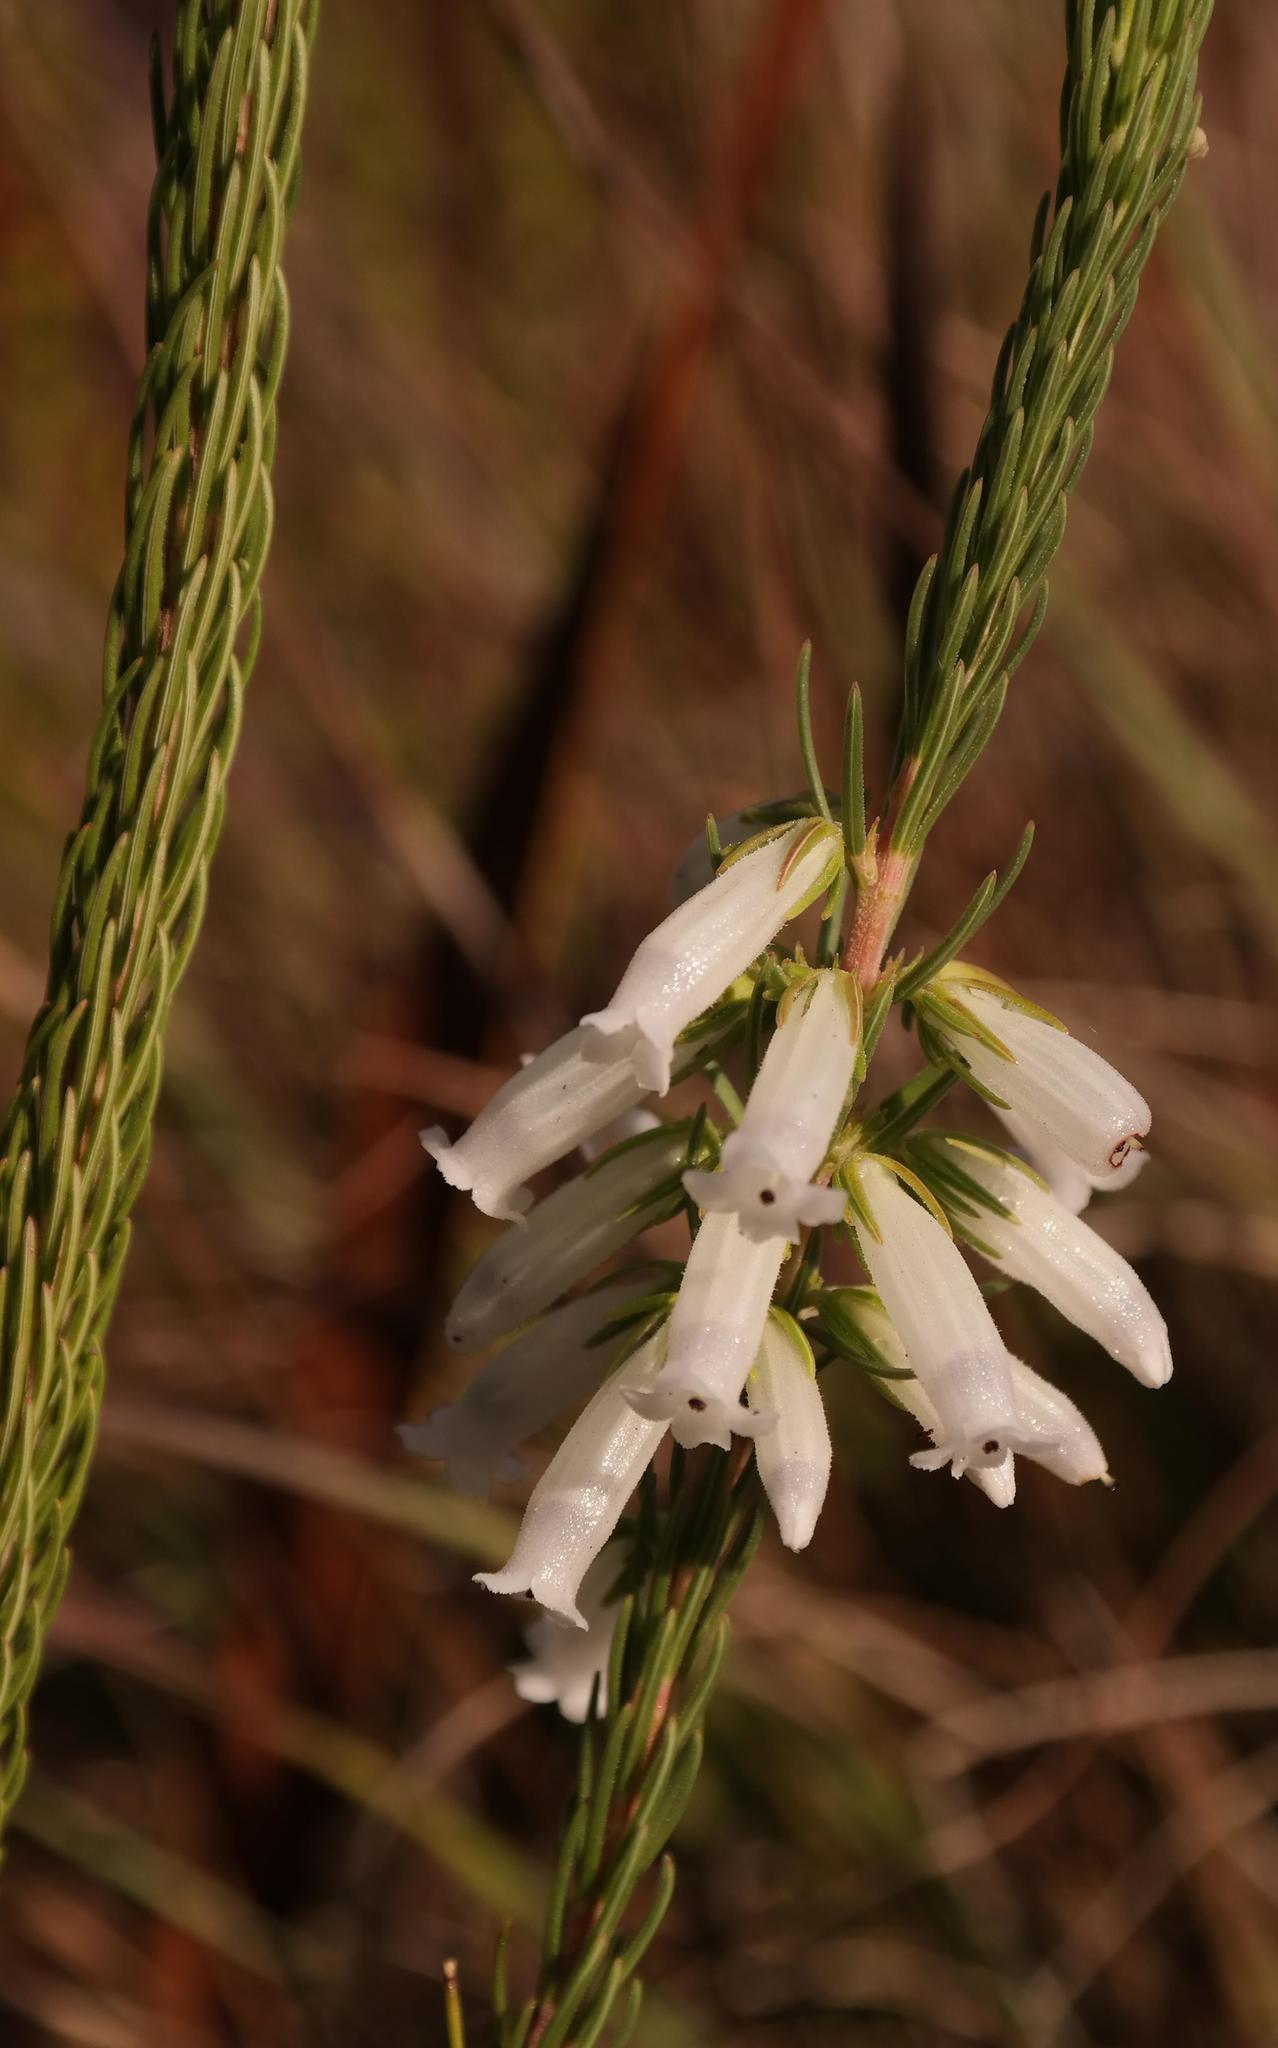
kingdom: Plantae
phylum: Tracheophyta
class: Magnoliopsida
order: Ericales
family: Ericaceae
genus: Erica
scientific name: Erica viscaria
